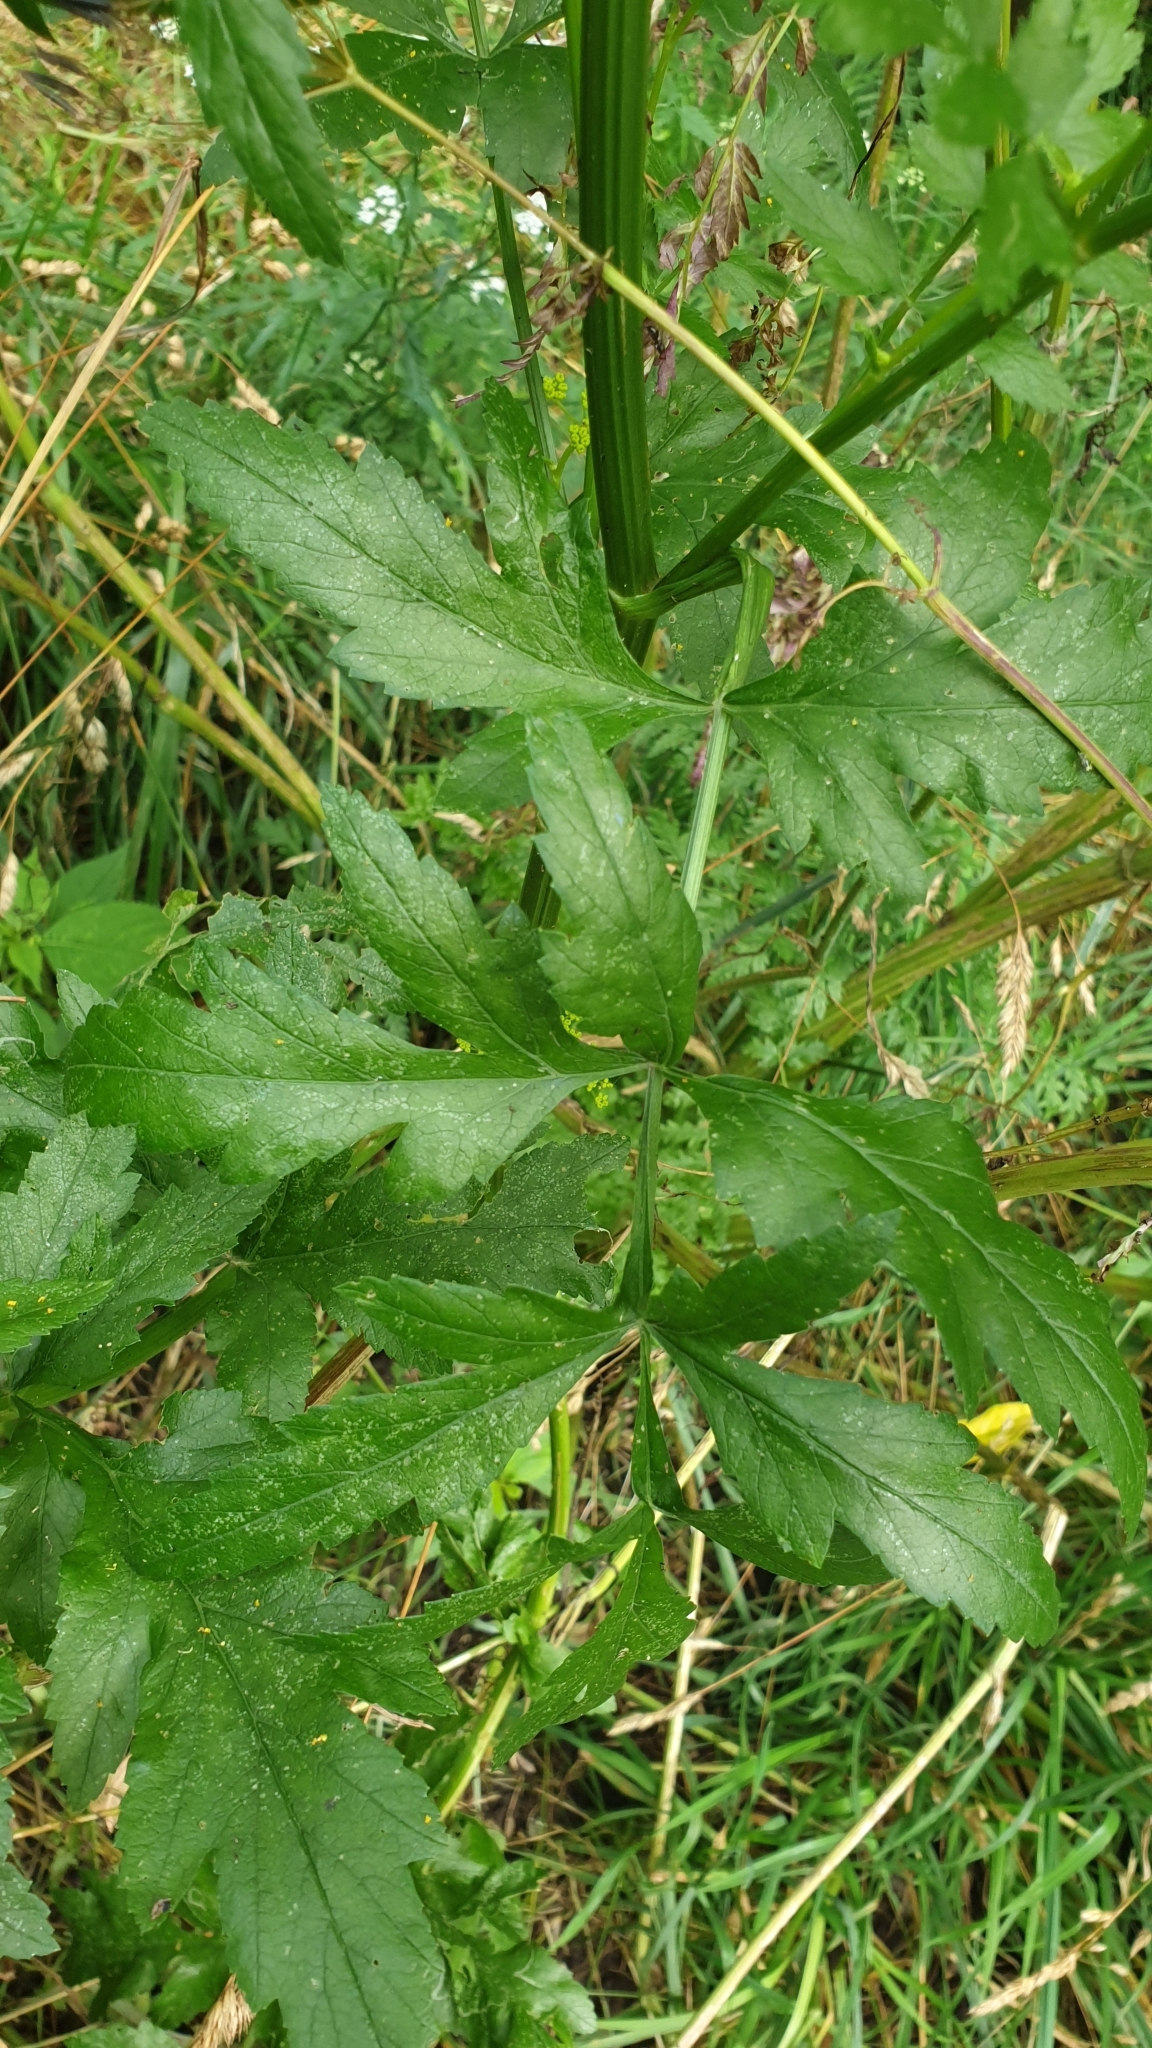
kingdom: Plantae
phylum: Tracheophyta
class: Magnoliopsida
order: Apiales
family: Apiaceae
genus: Pastinaca
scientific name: Pastinaca sativa
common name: Wild parsnip
